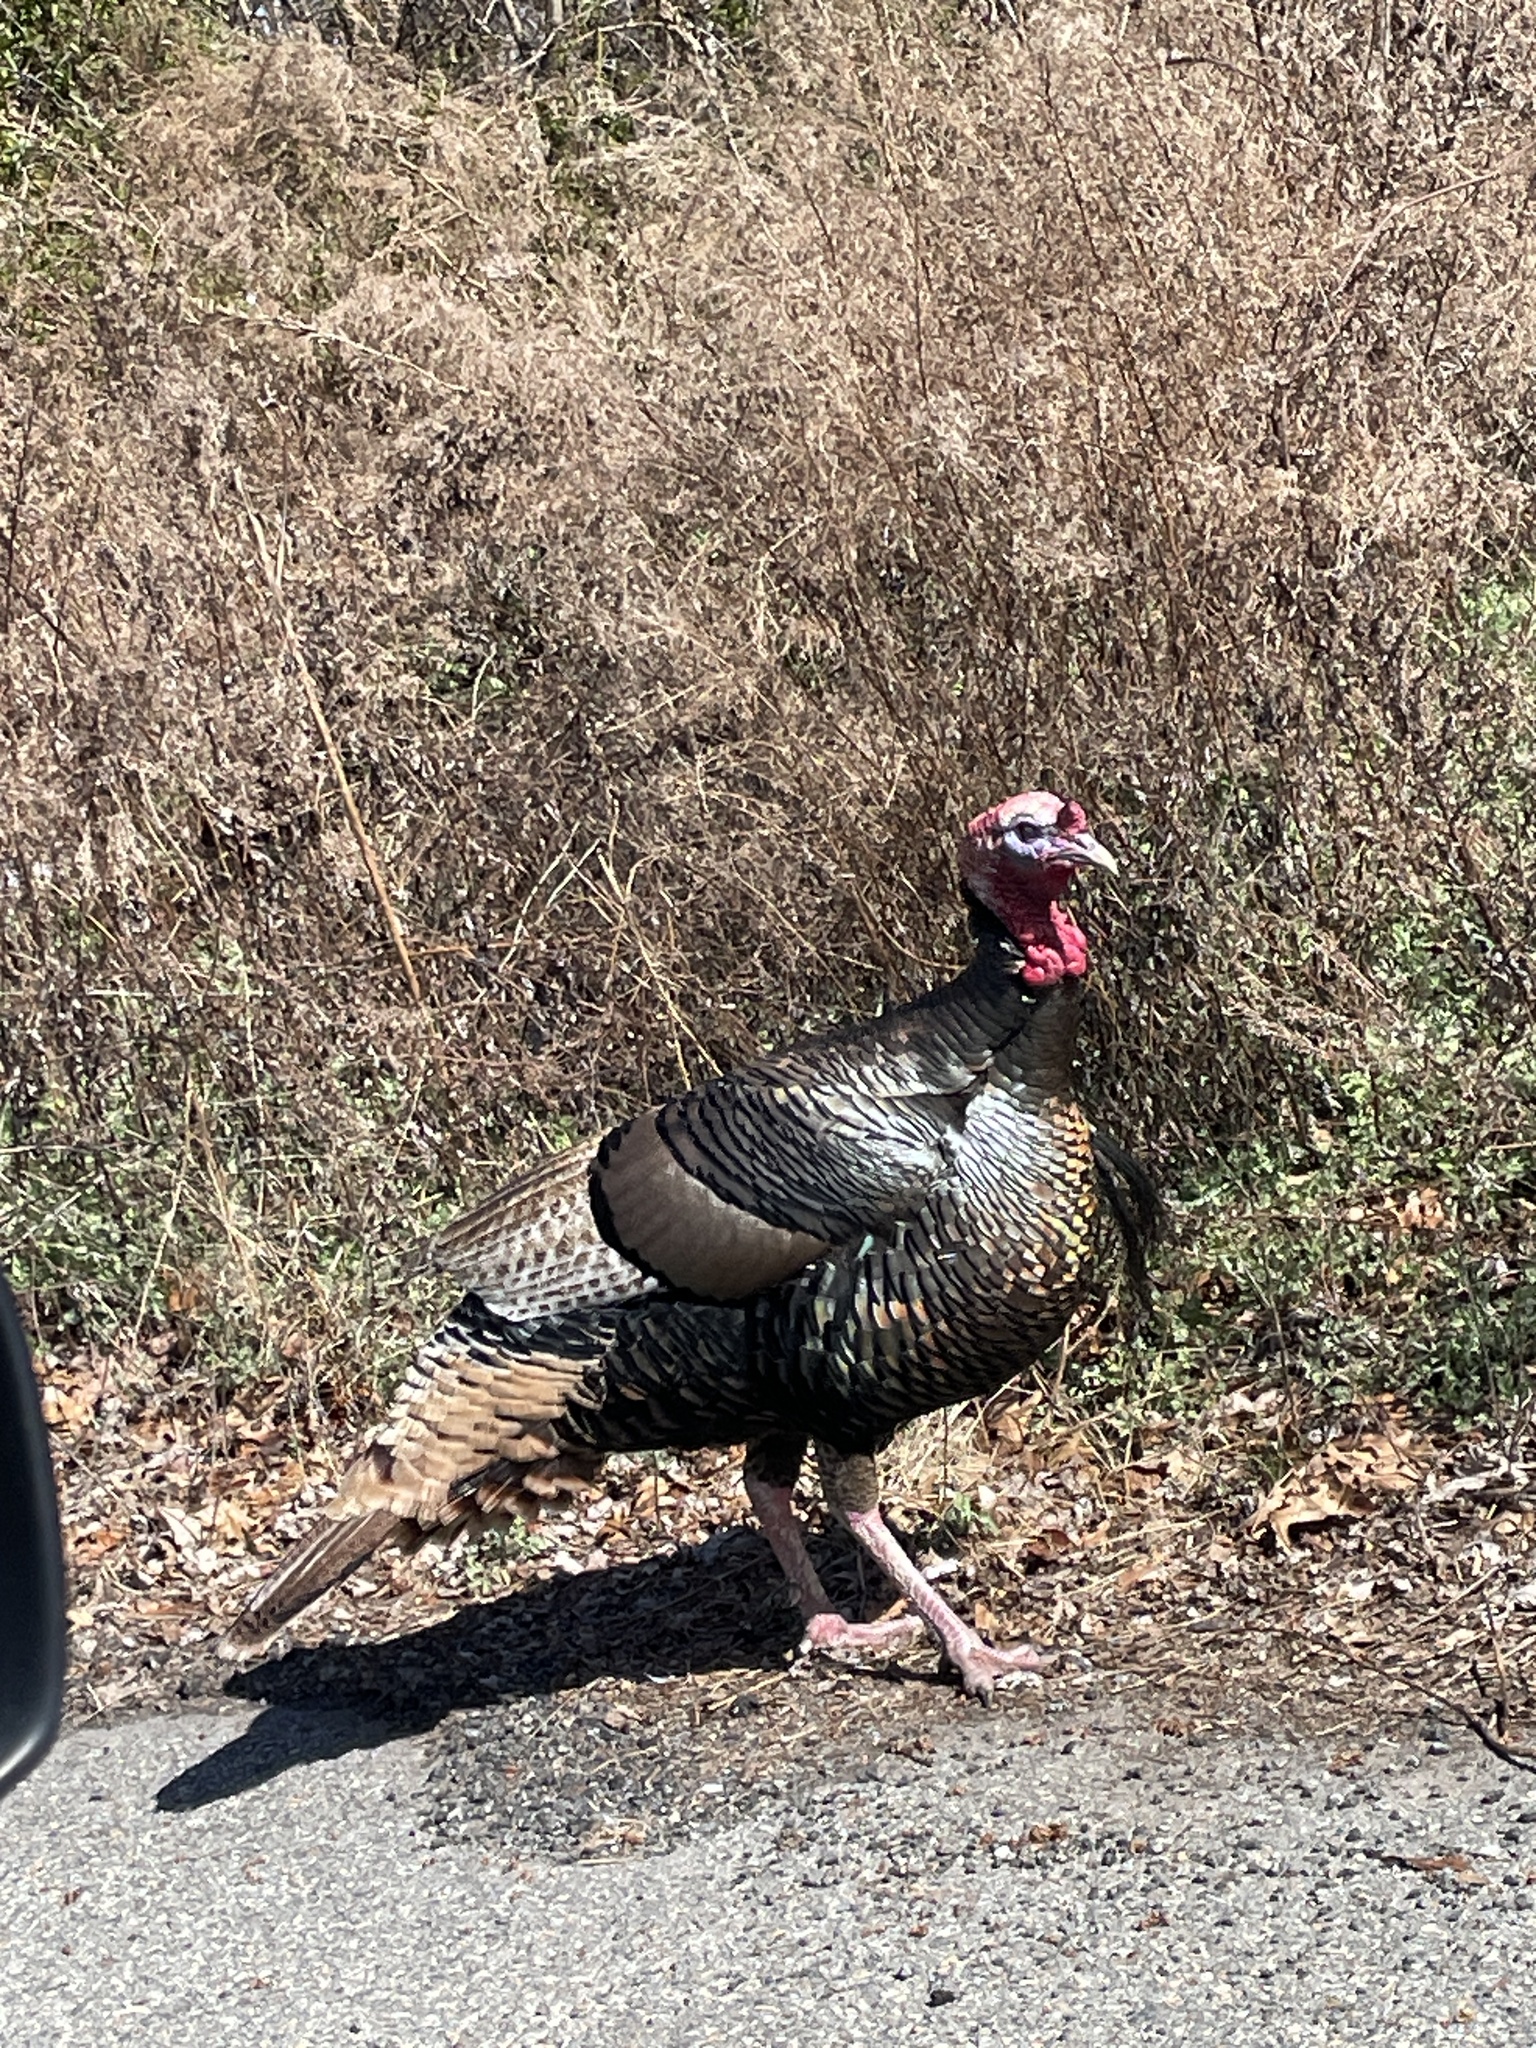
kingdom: Animalia
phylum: Chordata
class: Aves
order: Galliformes
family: Phasianidae
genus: Meleagris
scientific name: Meleagris gallopavo
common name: Wild turkey
